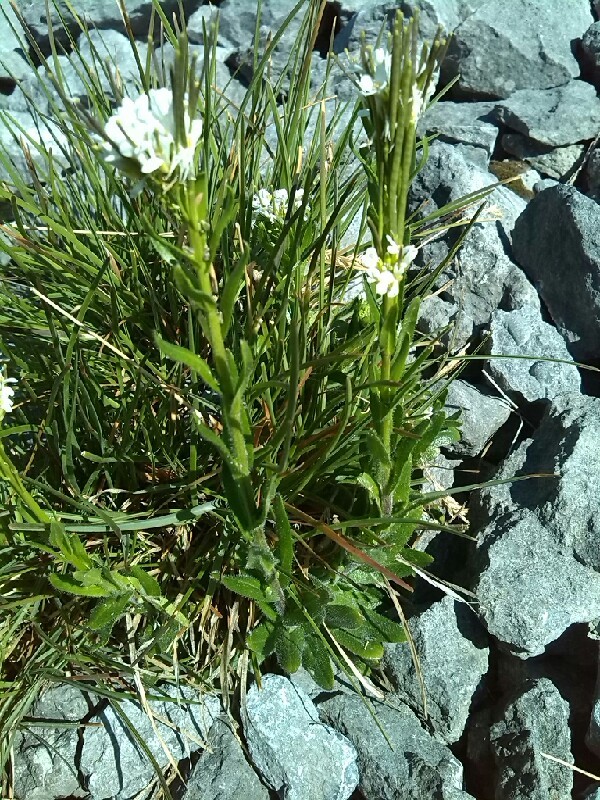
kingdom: Plantae
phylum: Tracheophyta
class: Magnoliopsida
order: Brassicales
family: Brassicaceae
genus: Arabis
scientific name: Arabis hirsuta
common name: Hairy rock-cress
